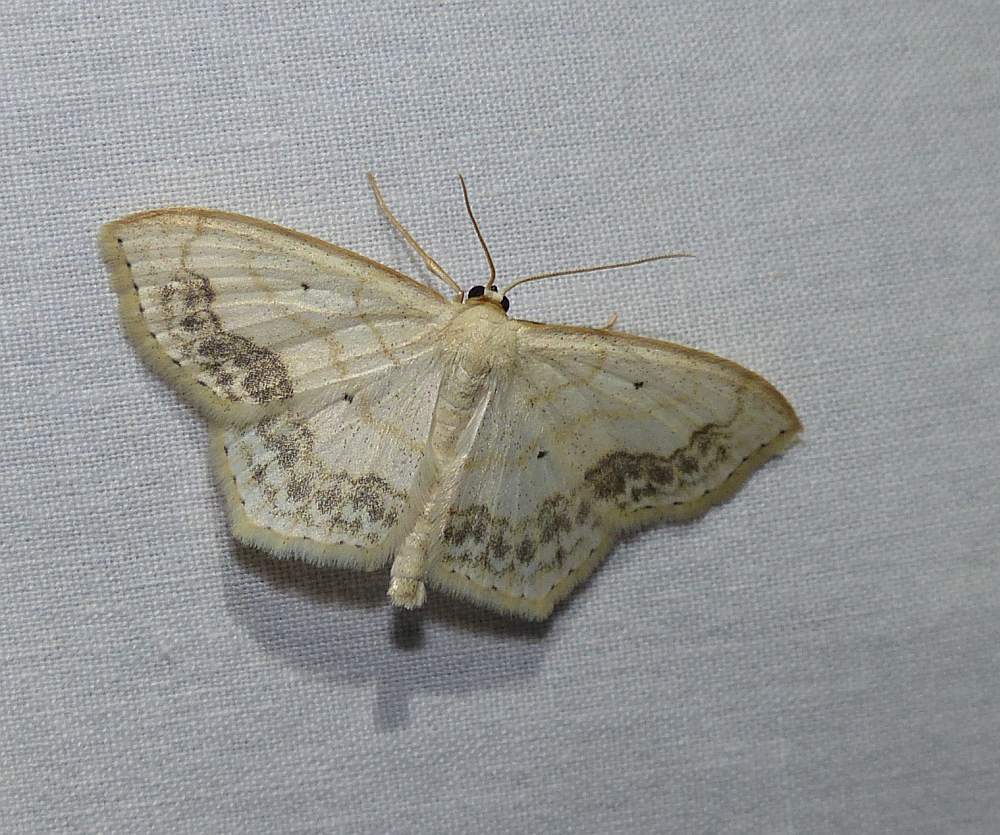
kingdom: Animalia
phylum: Arthropoda
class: Insecta
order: Lepidoptera
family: Geometridae
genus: Scopula
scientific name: Scopula limboundata
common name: Large lace border
